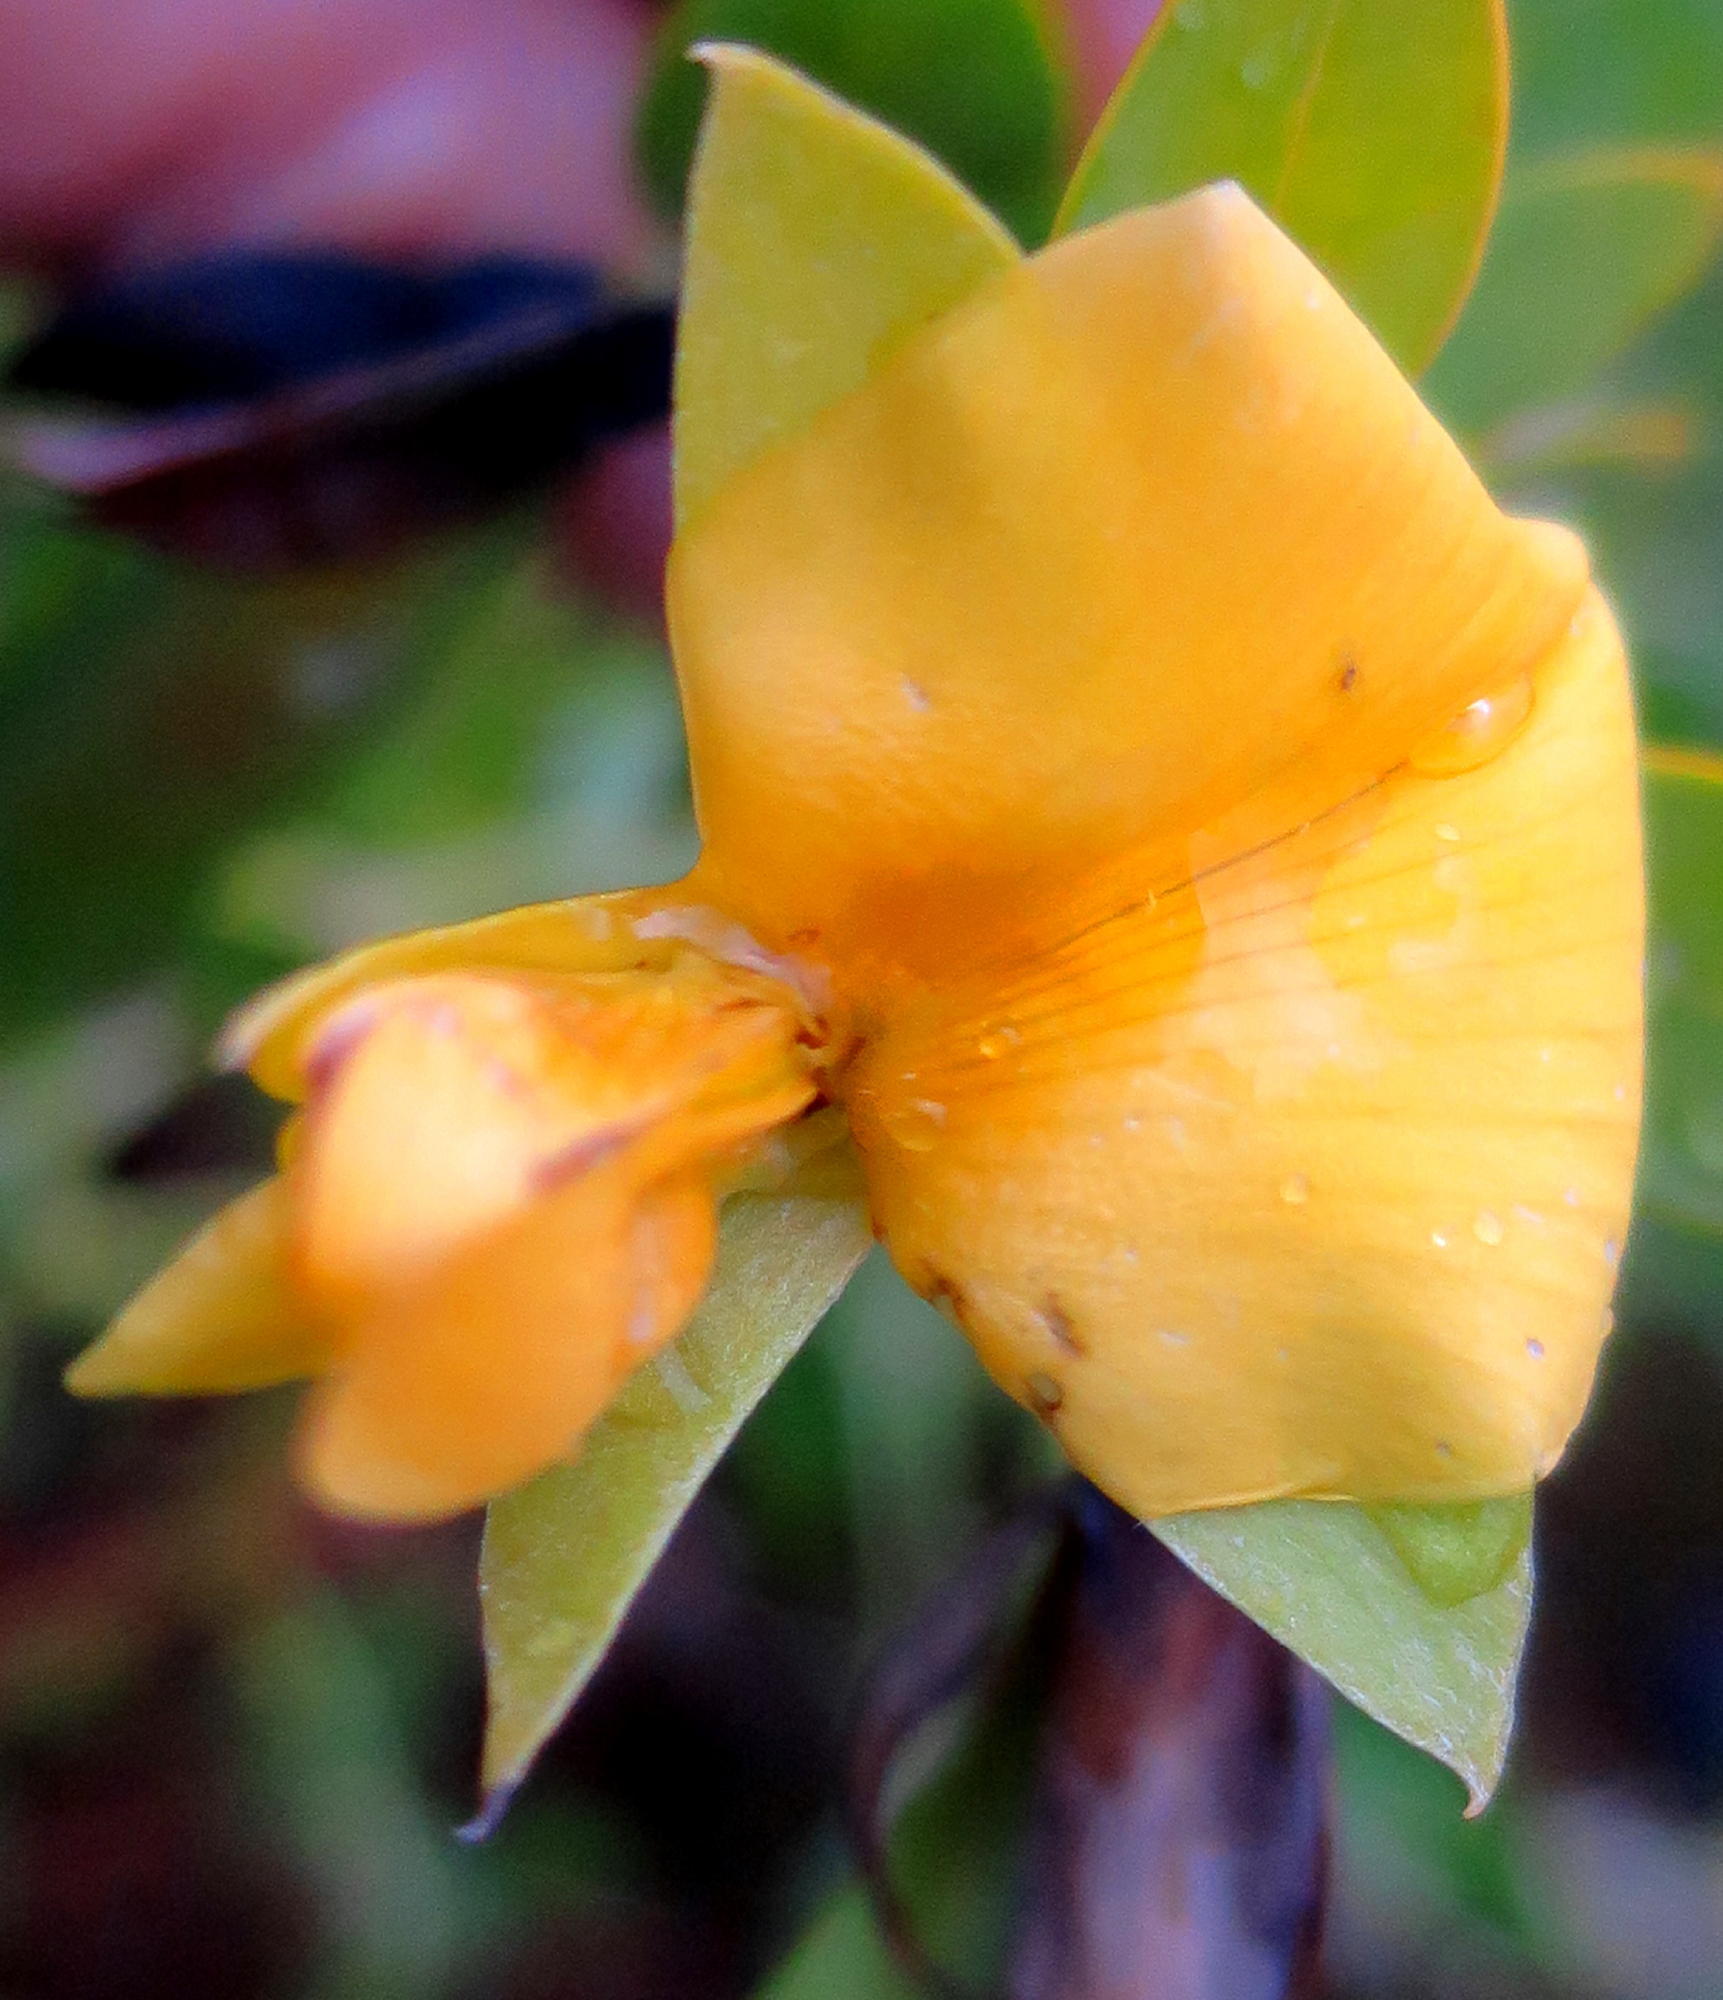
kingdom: Plantae
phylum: Tracheophyta
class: Magnoliopsida
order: Fabales
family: Fabaceae
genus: Rafnia
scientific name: Rafnia vlokii
